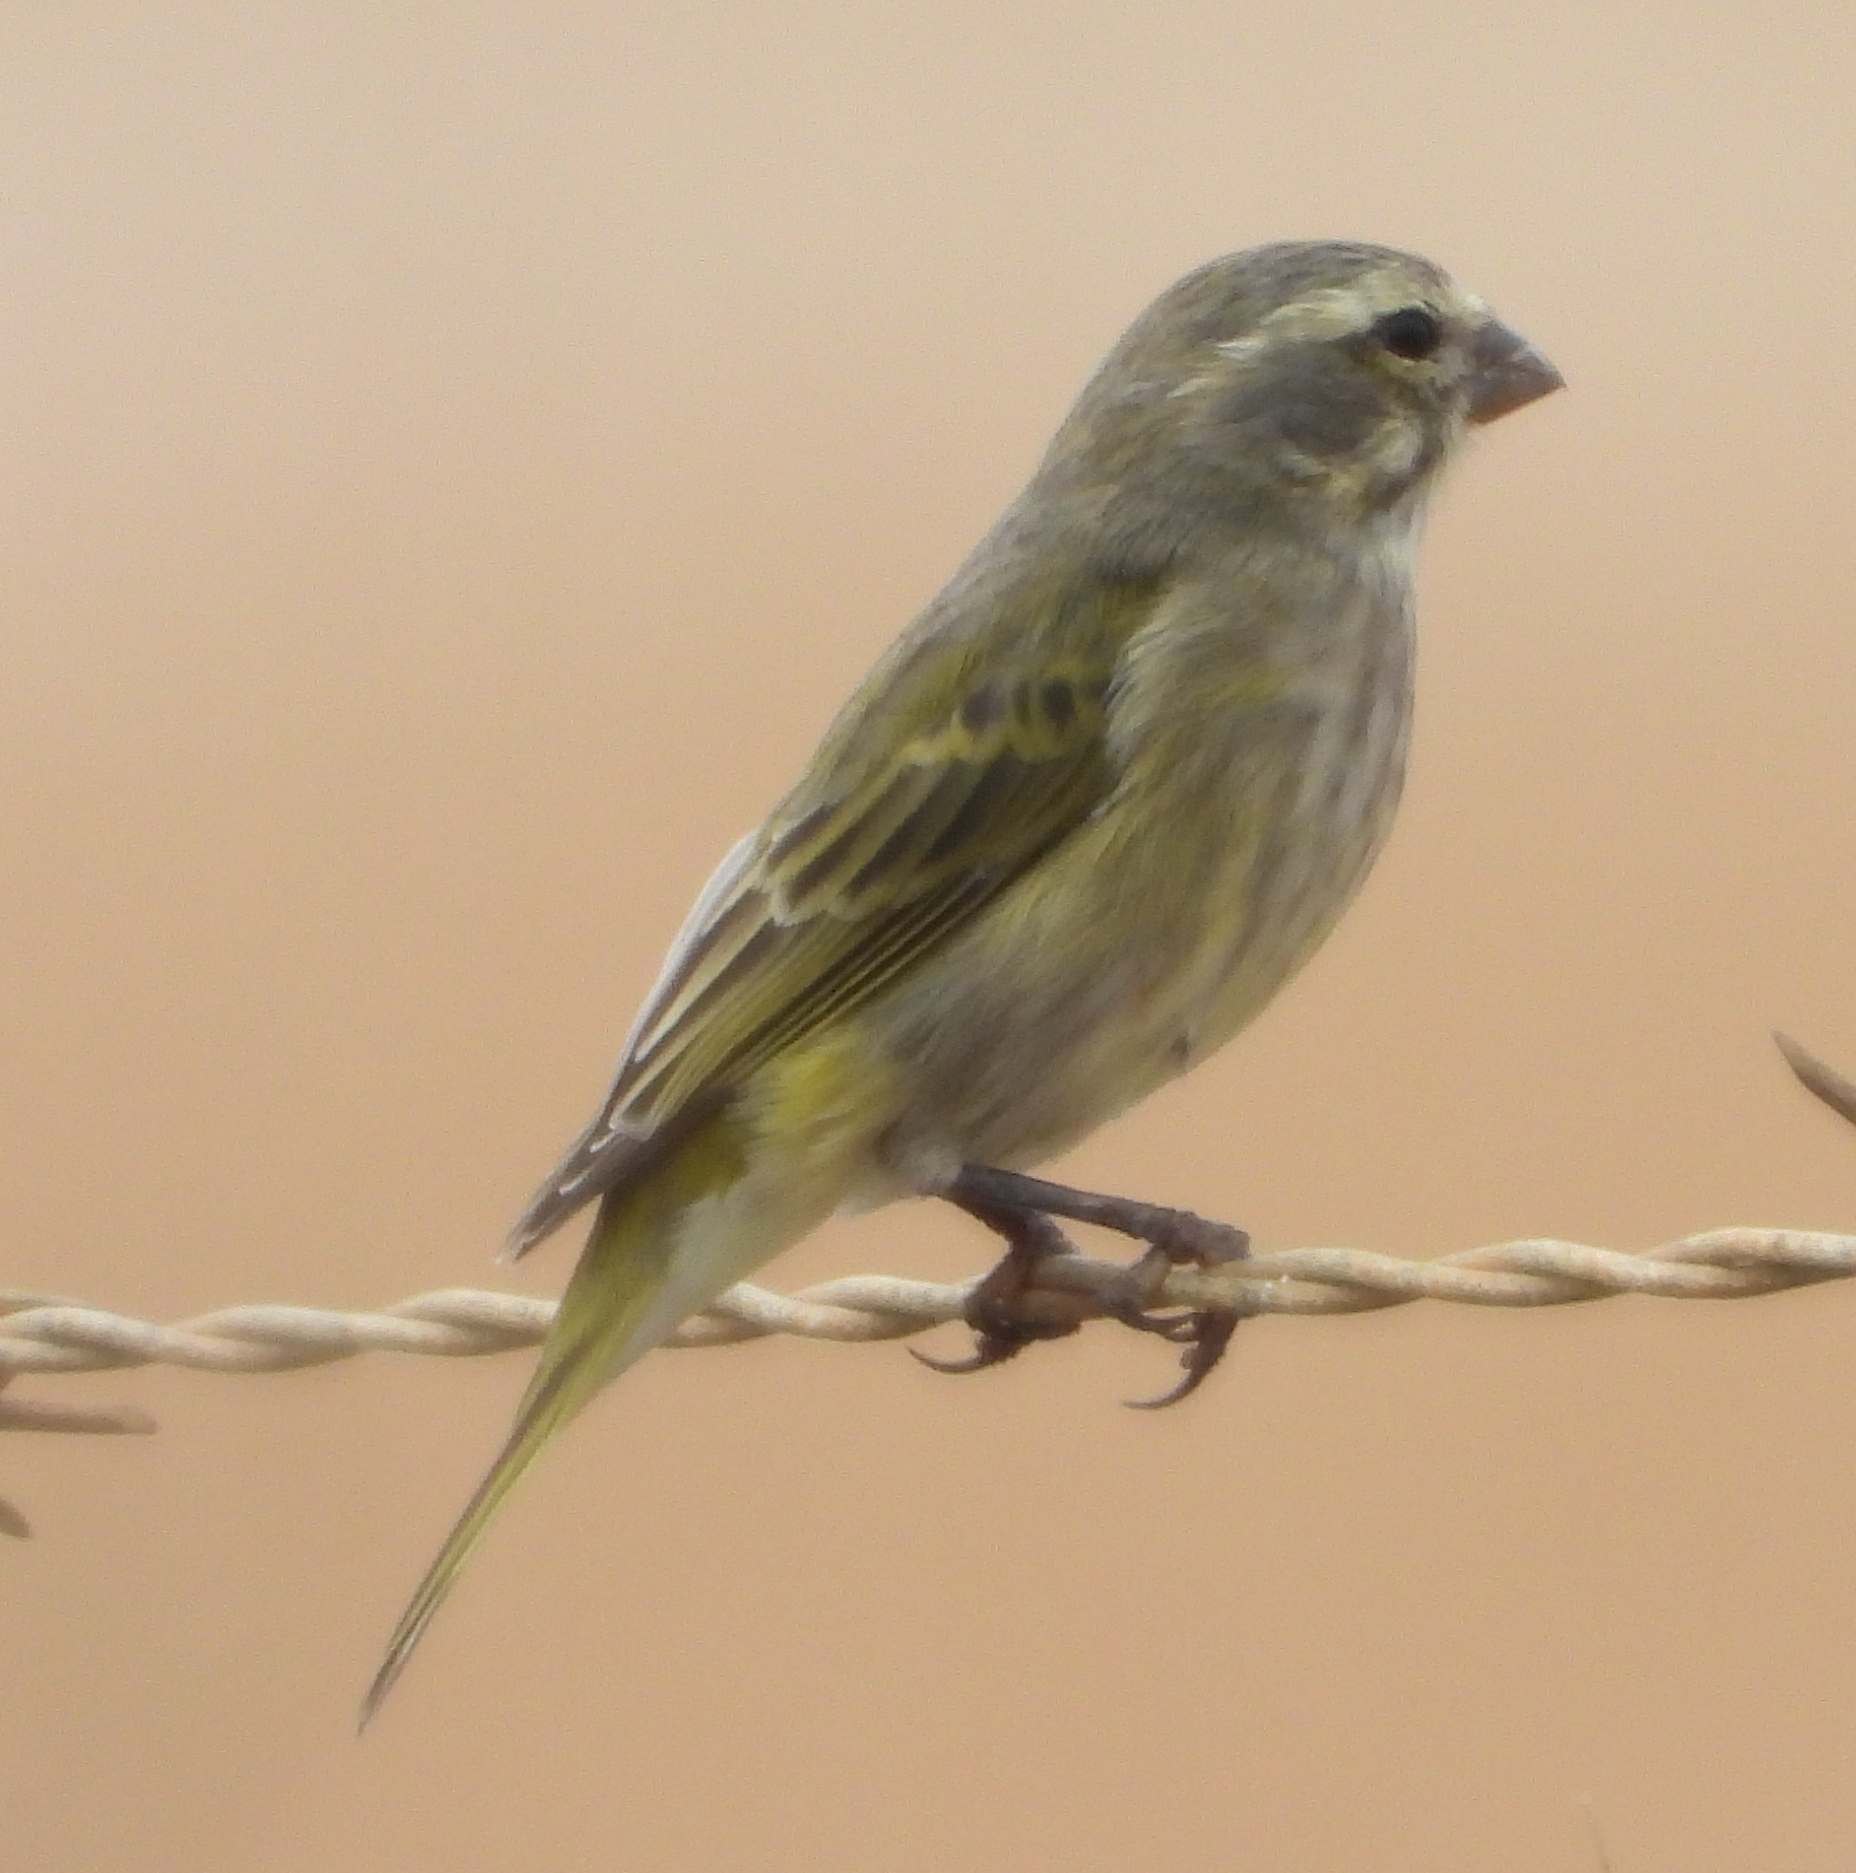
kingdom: Animalia
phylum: Chordata
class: Aves
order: Passeriformes
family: Fringillidae
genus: Crithagra
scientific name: Crithagra flaviventris
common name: Yellow canary
